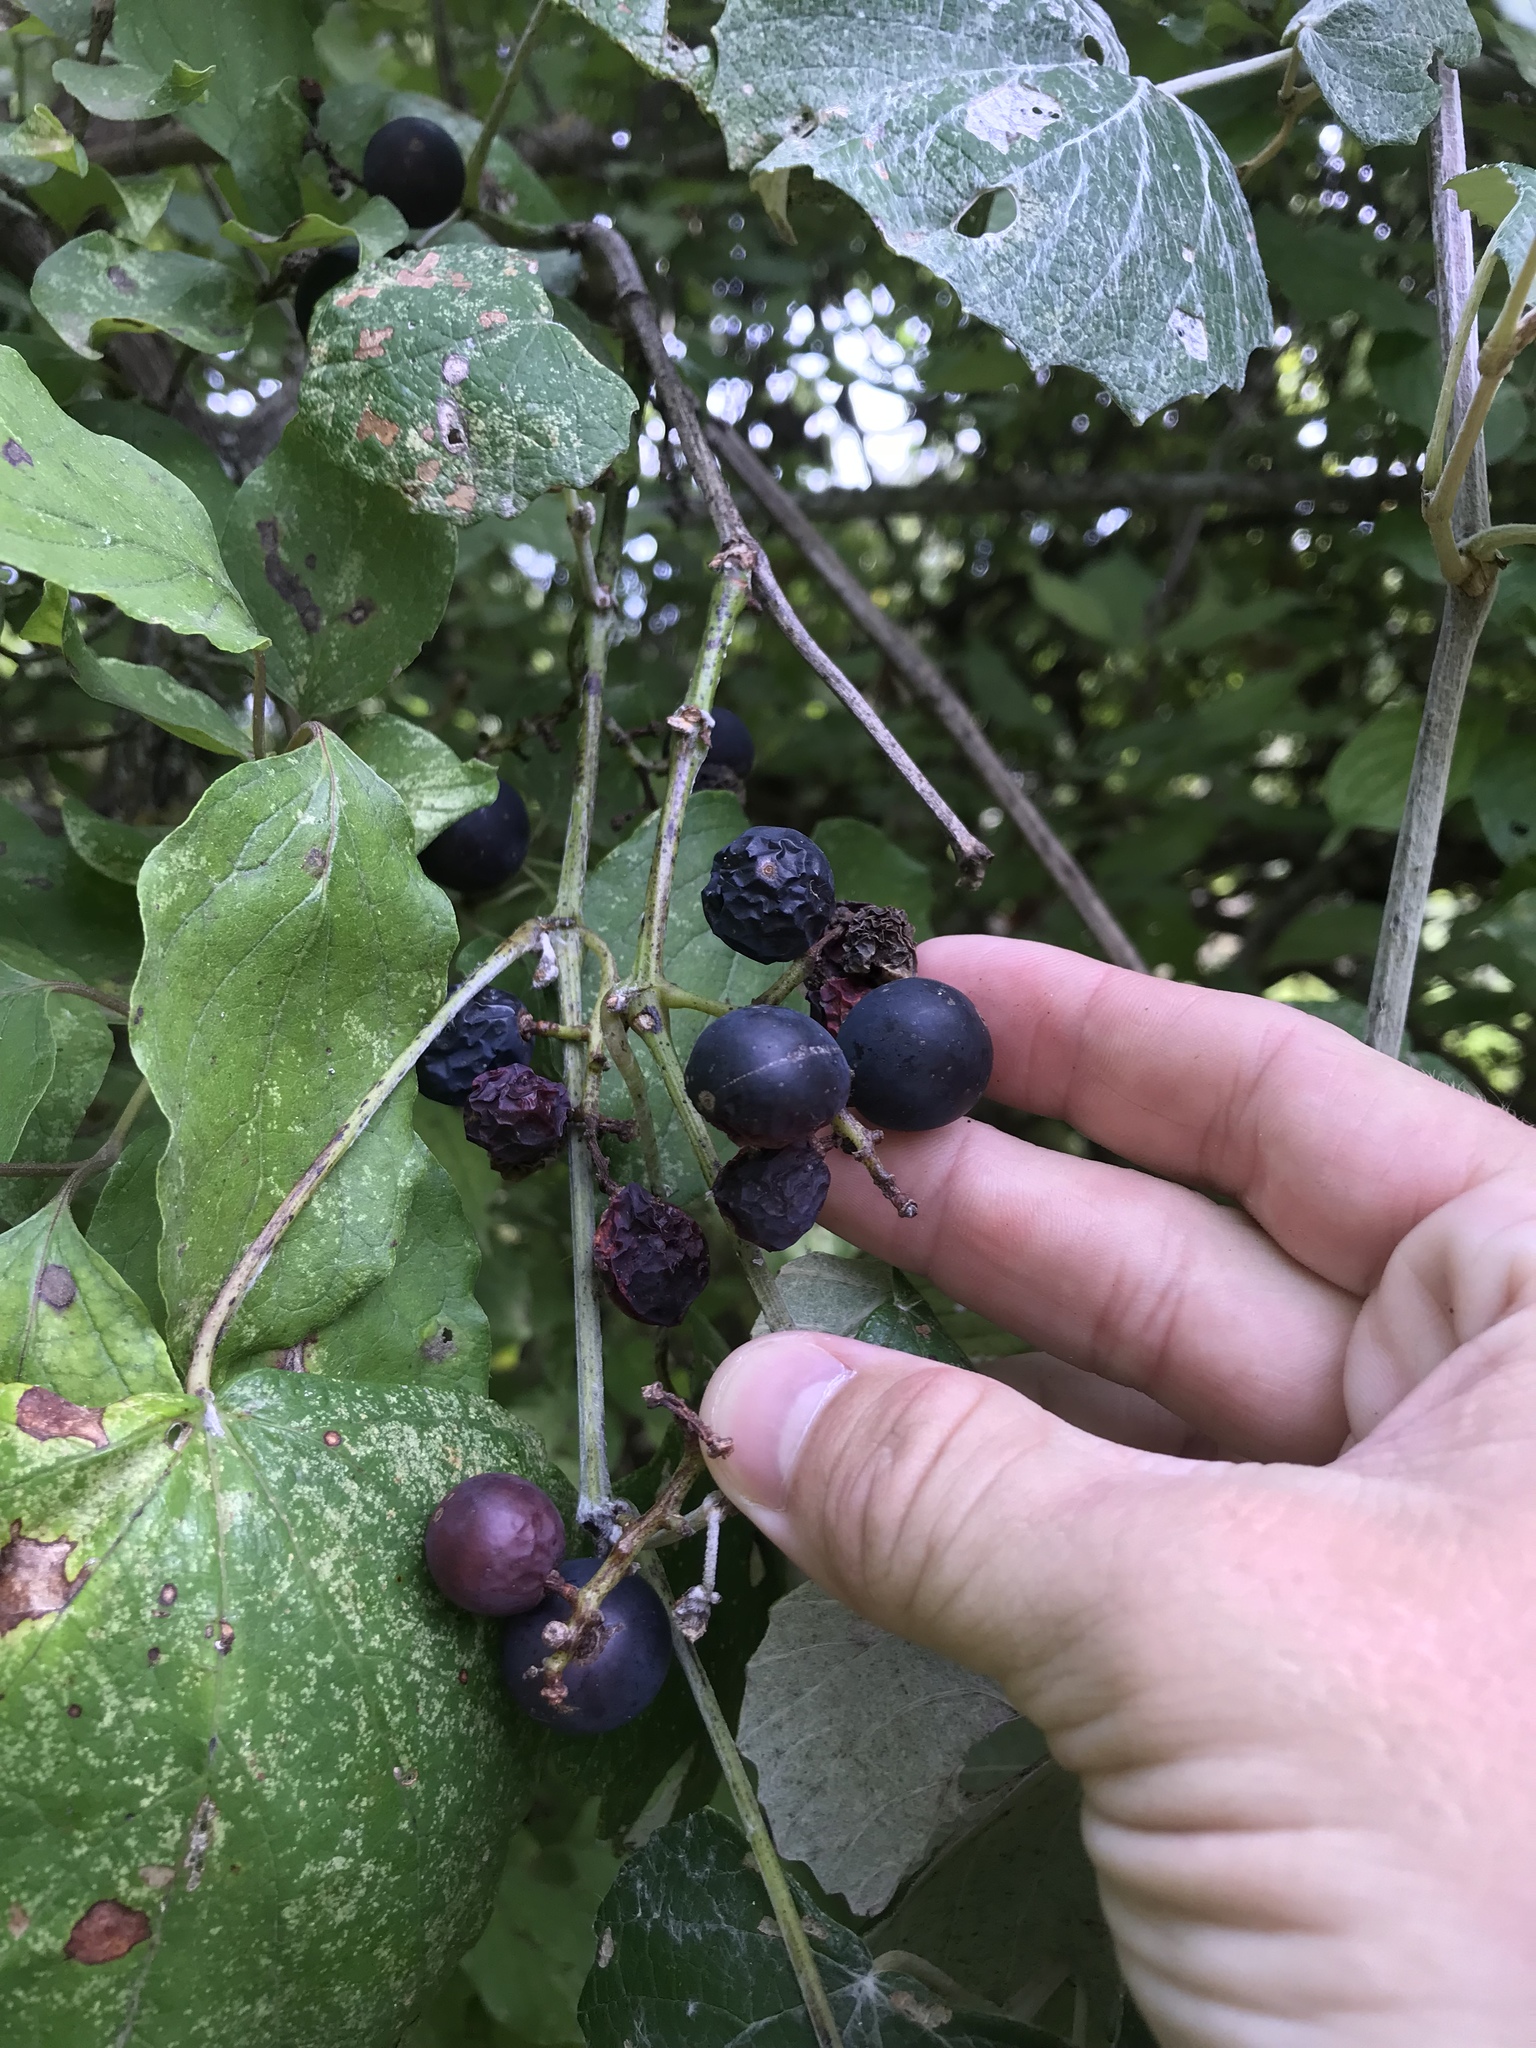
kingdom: Plantae
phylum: Tracheophyta
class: Magnoliopsida
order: Vitales
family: Vitaceae
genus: Vitis
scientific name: Vitis mustangensis
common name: Mustang grape
